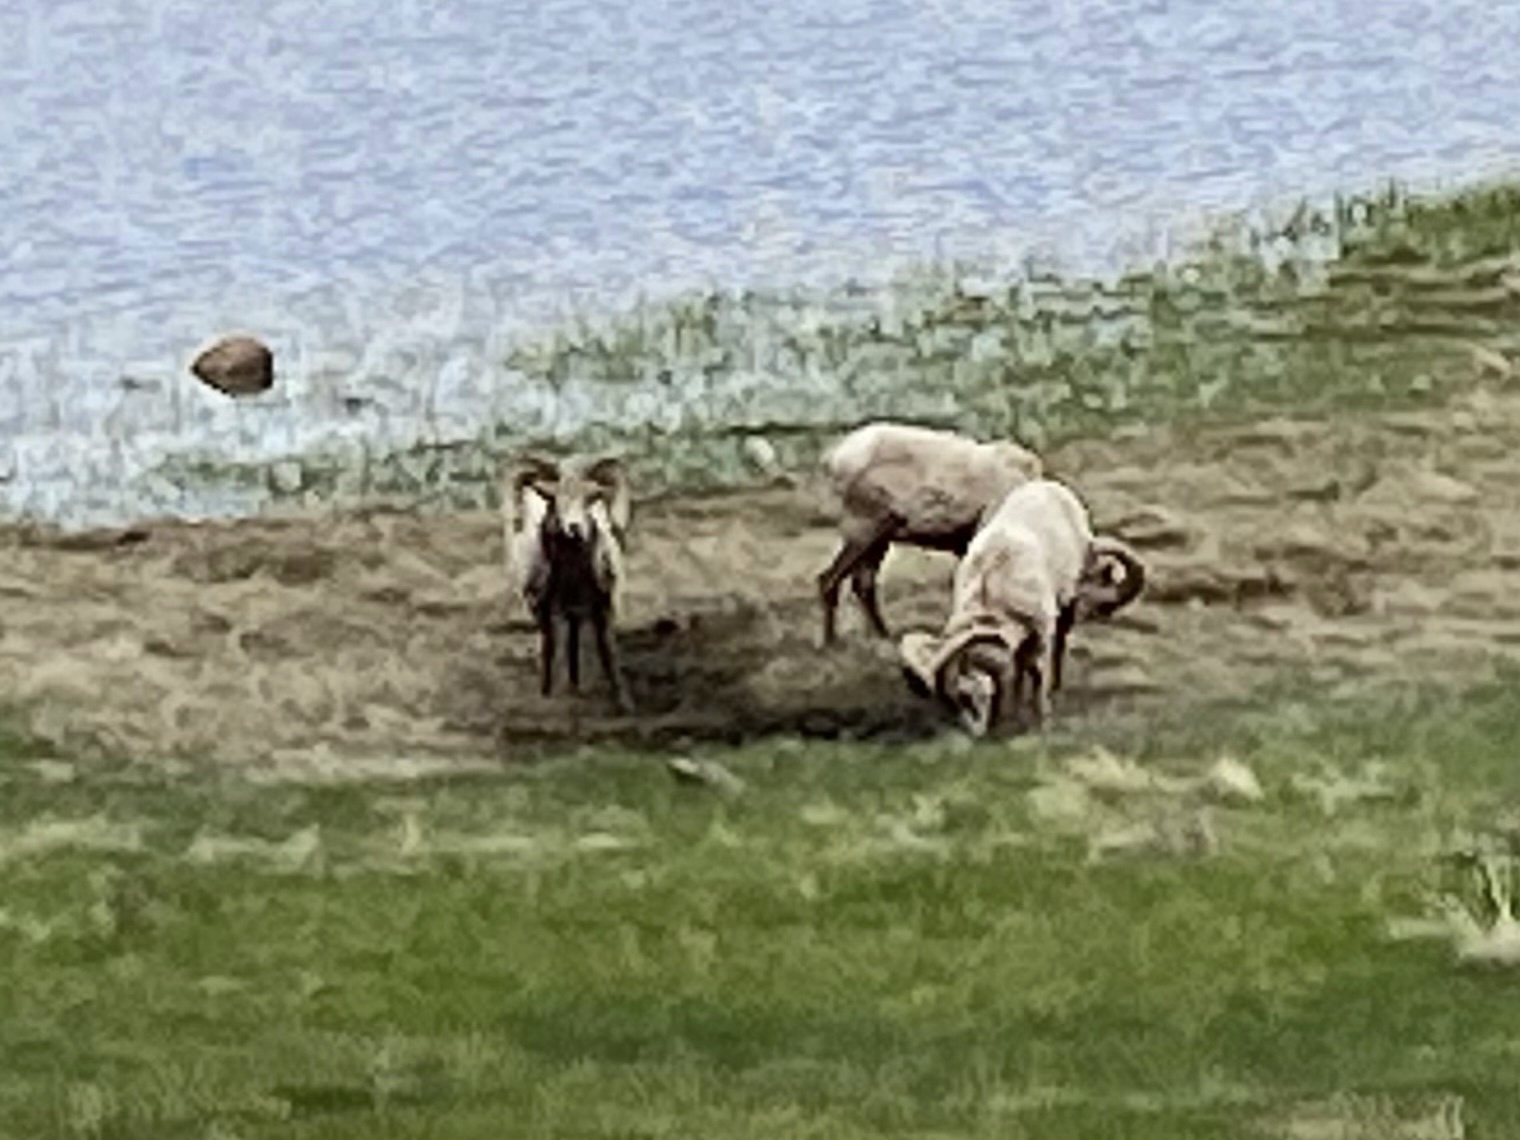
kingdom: Animalia
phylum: Chordata
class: Mammalia
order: Artiodactyla
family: Bovidae
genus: Ovis
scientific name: Ovis canadensis
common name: Bighorn sheep
